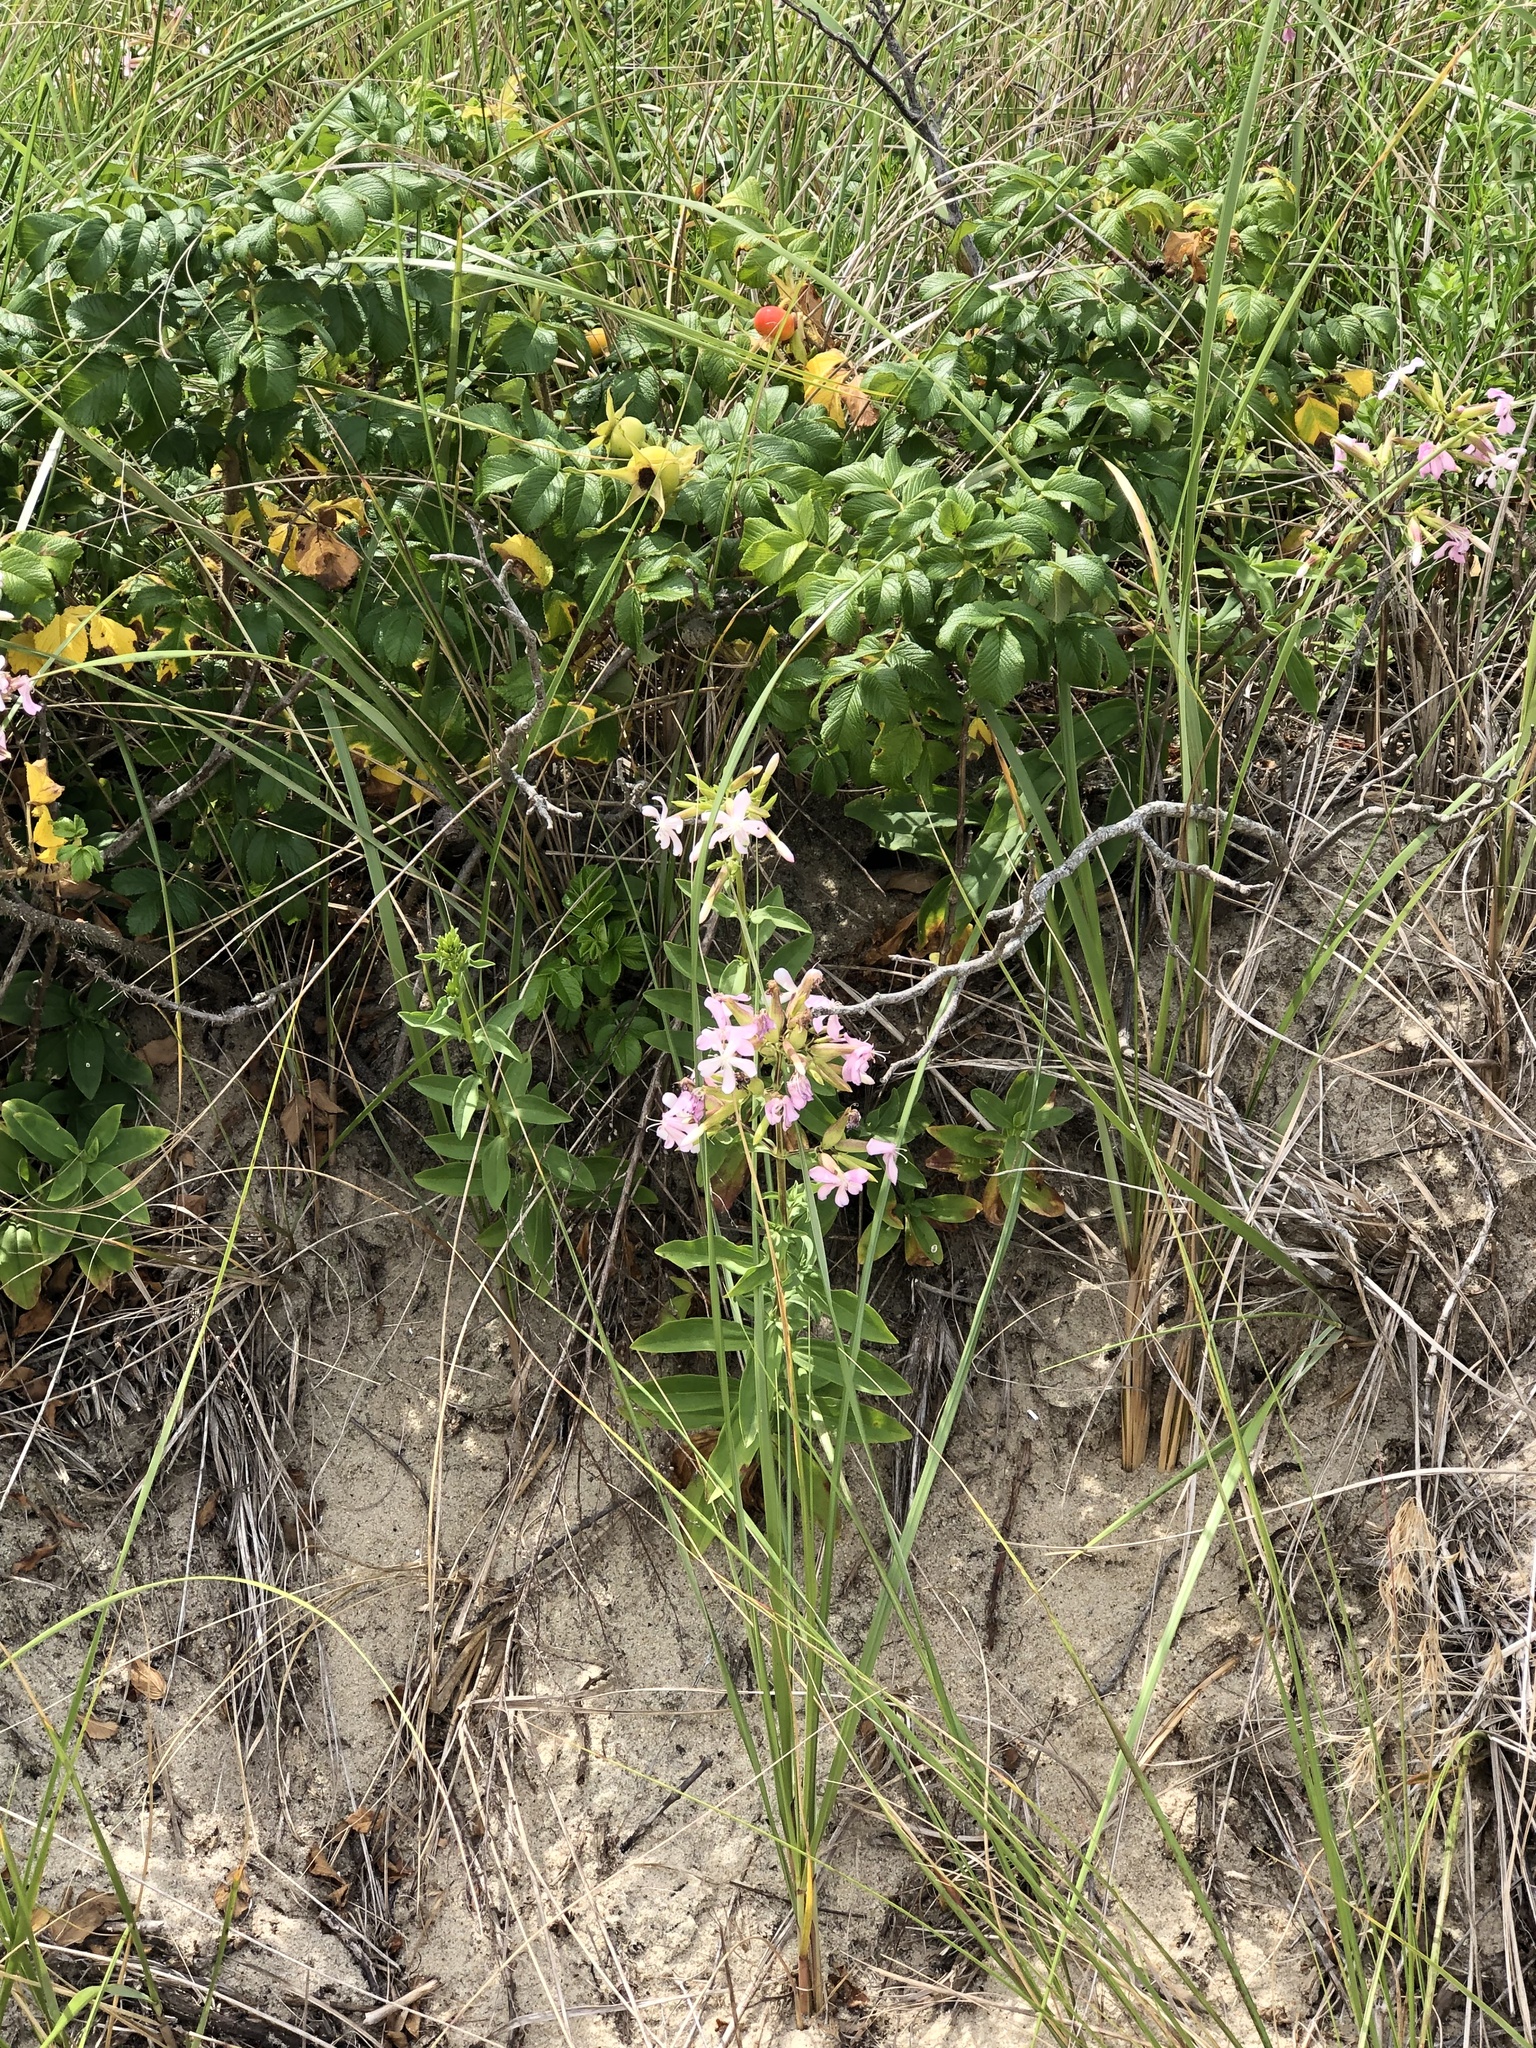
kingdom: Plantae
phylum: Tracheophyta
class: Magnoliopsida
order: Caryophyllales
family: Caryophyllaceae
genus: Saponaria
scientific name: Saponaria officinalis
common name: Soapwort
